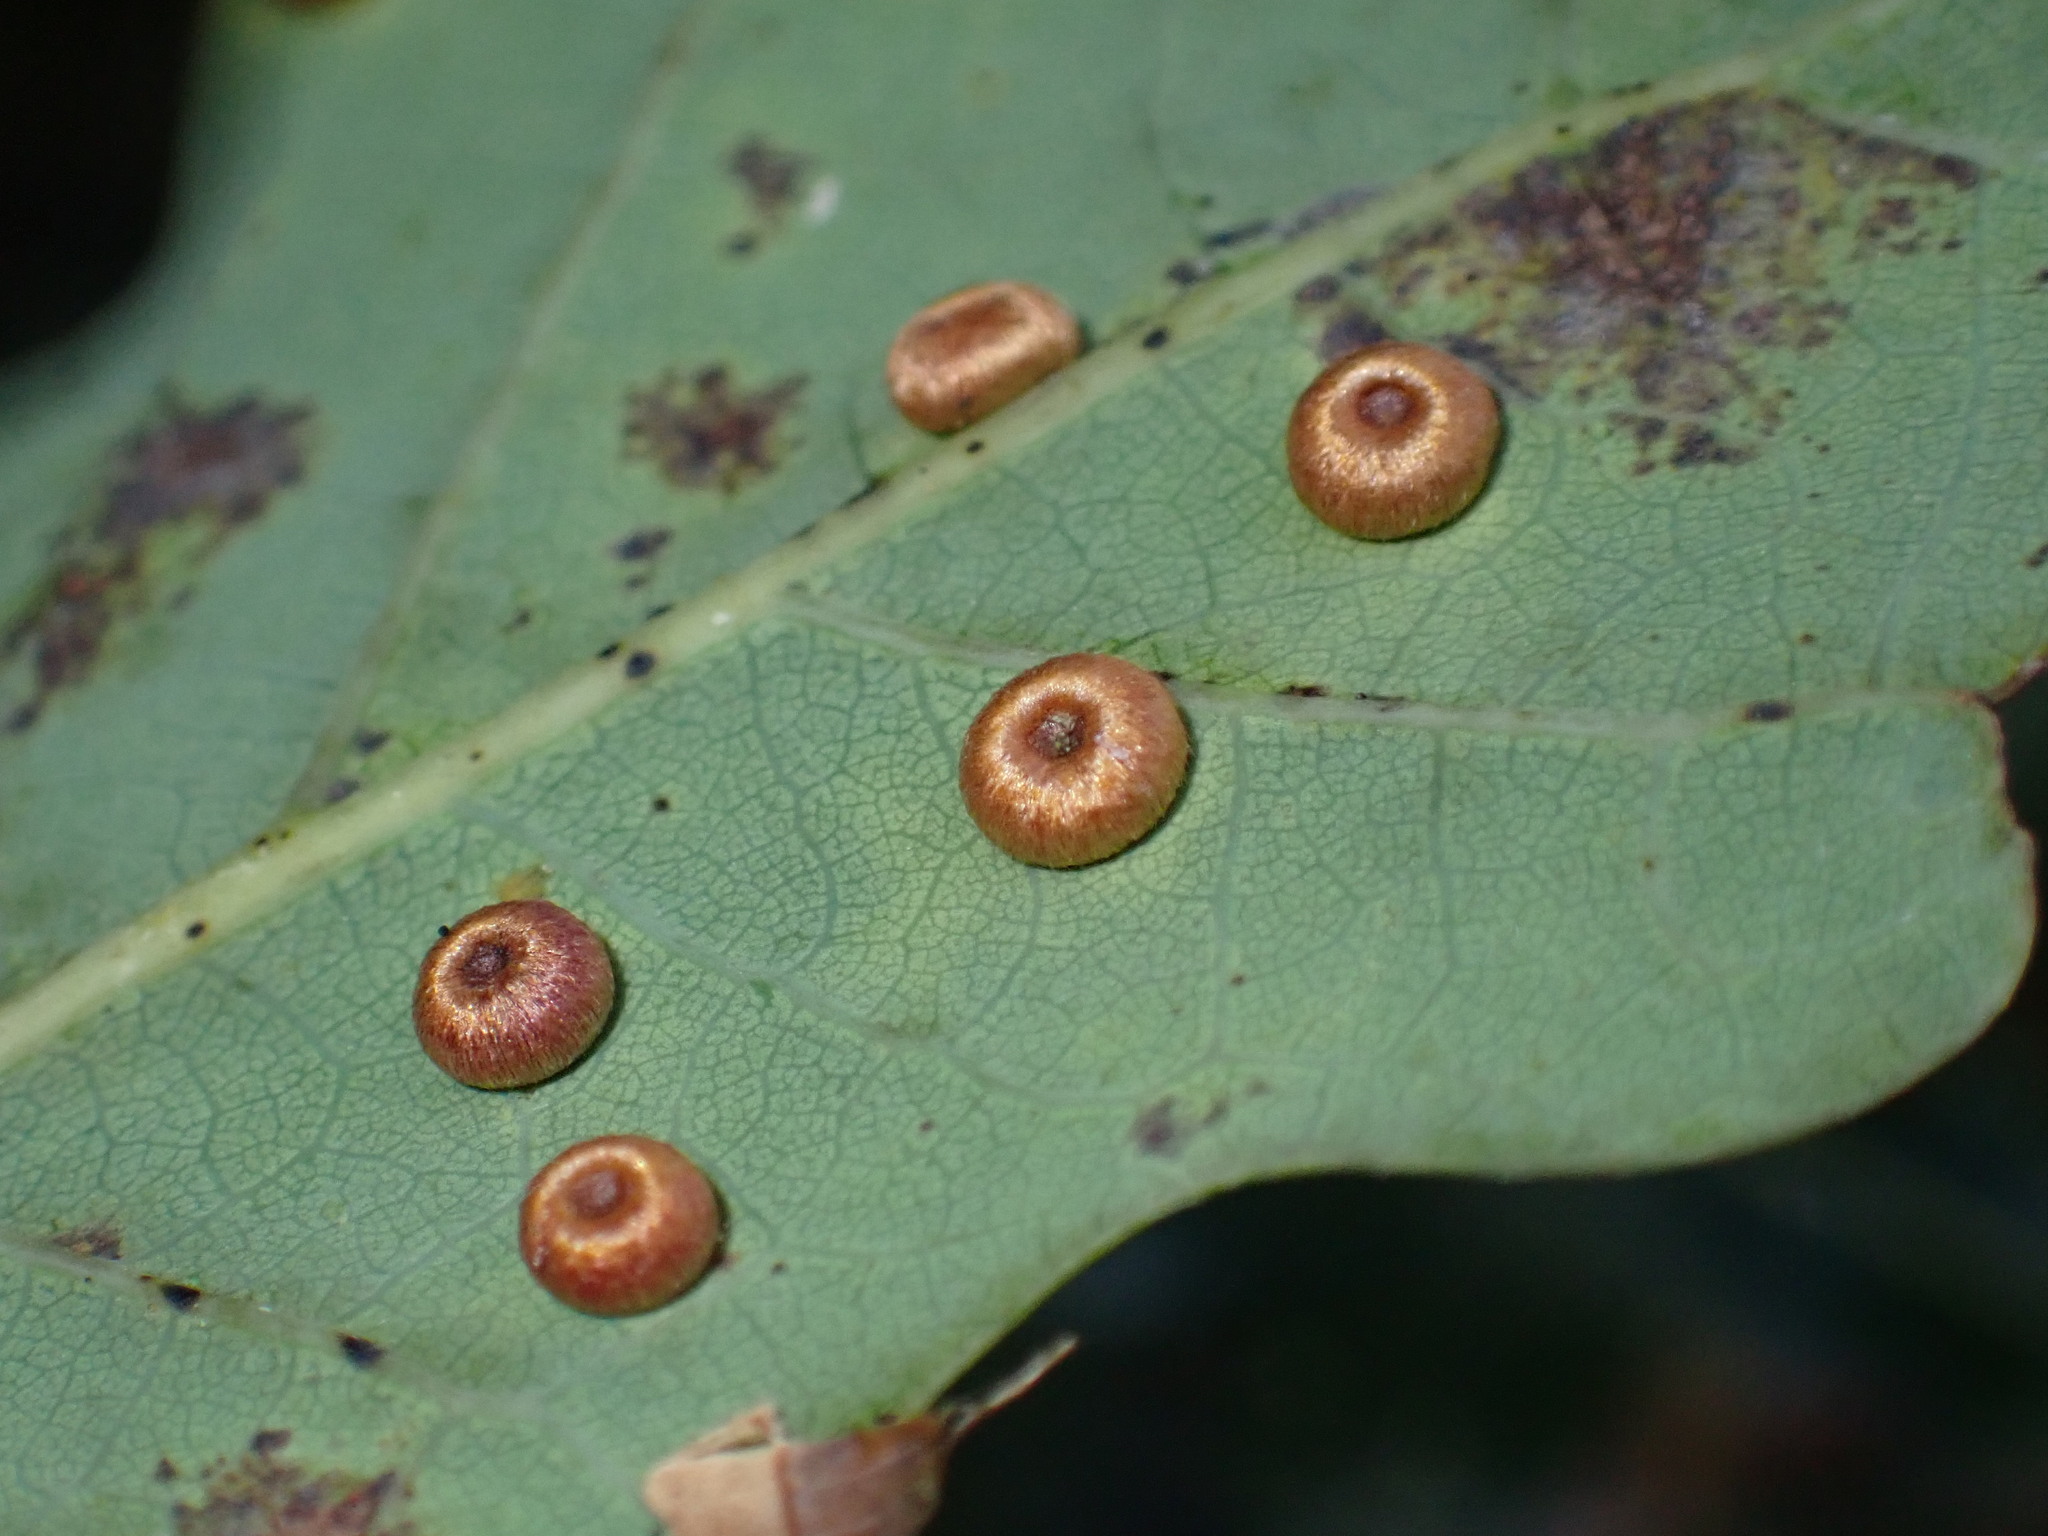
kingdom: Animalia
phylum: Arthropoda
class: Insecta
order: Hymenoptera
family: Cynipidae
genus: Neuroterus
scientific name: Neuroterus numismalis
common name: Silk-button spangle gall
